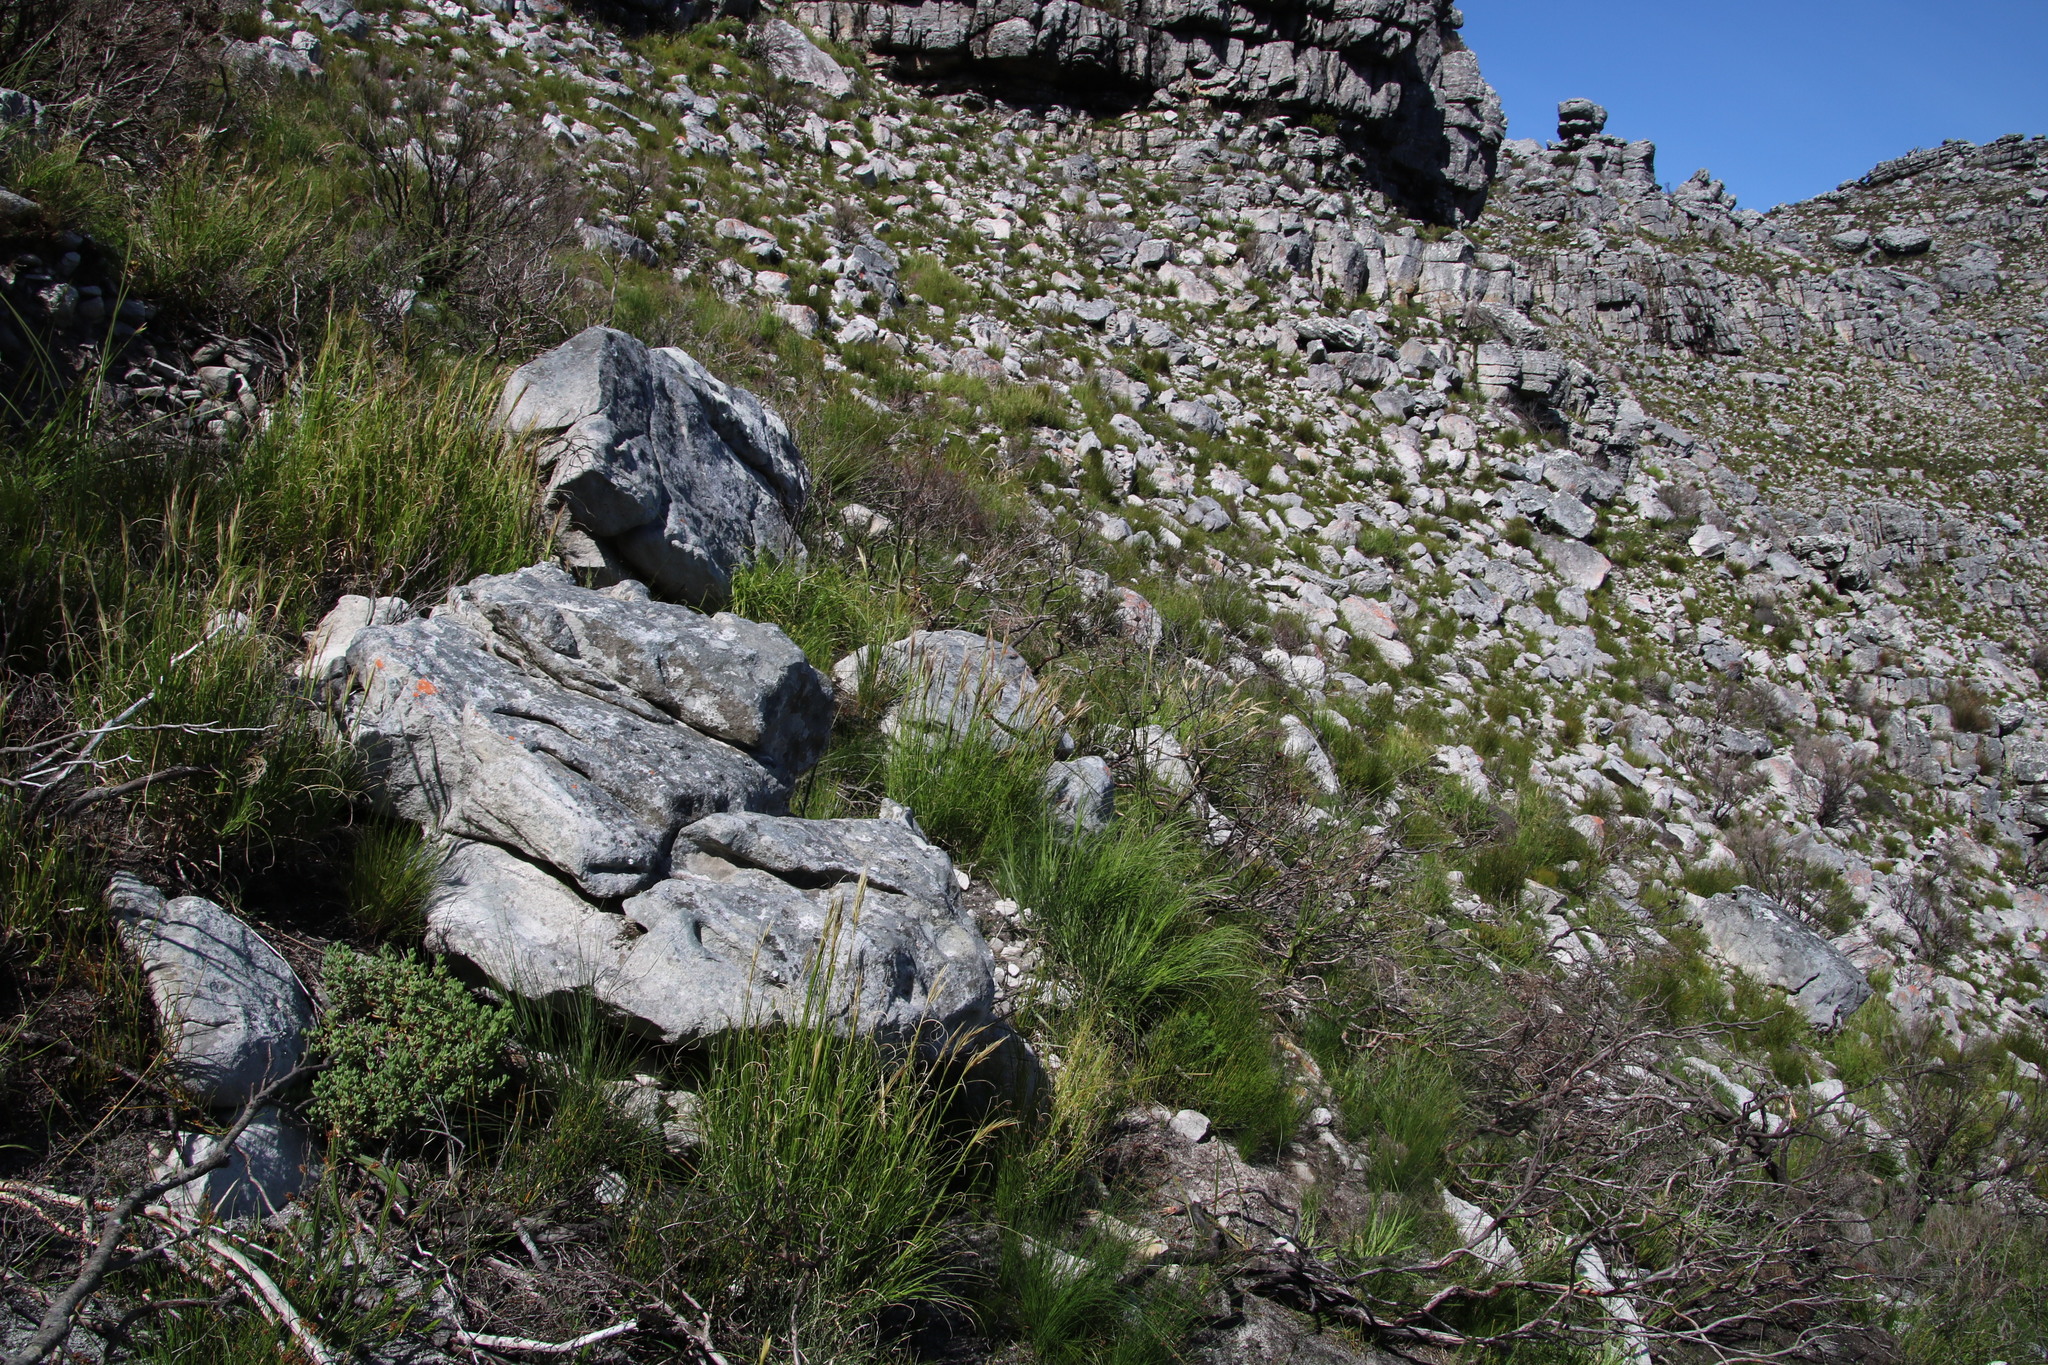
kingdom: Plantae
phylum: Tracheophyta
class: Liliopsida
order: Poales
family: Poaceae
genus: Pseudopentameris
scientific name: Pseudopentameris macrantha
